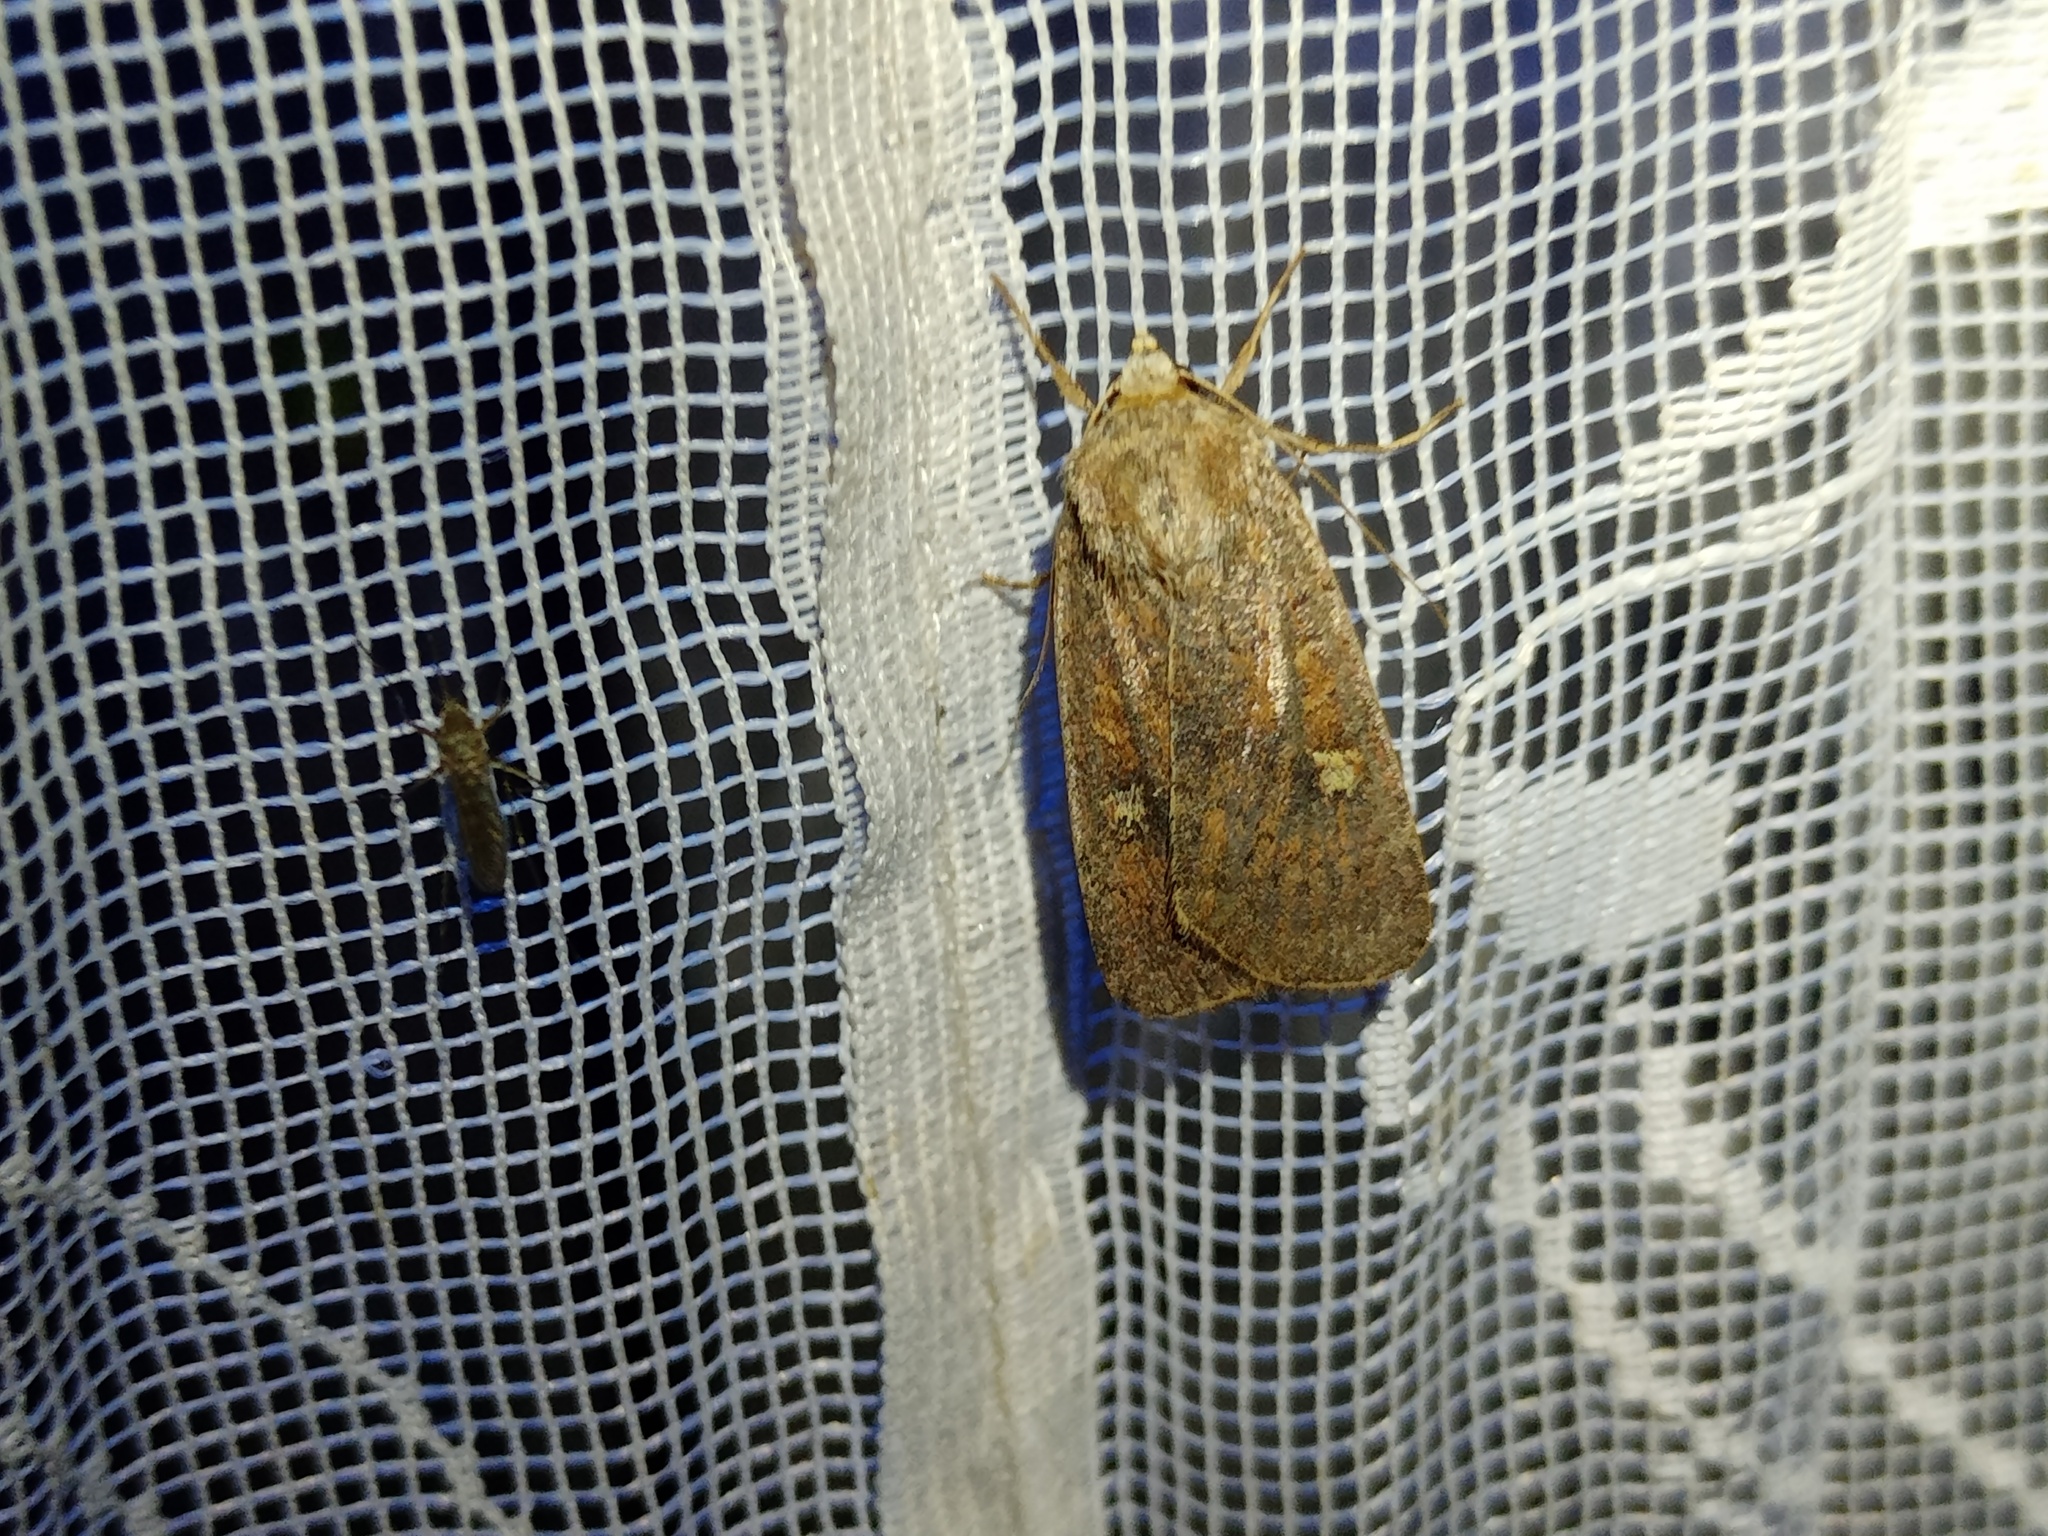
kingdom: Animalia
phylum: Arthropoda
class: Insecta
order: Lepidoptera
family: Noctuidae
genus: Xestia
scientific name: Xestia xanthographa
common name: Square-spot rustic
